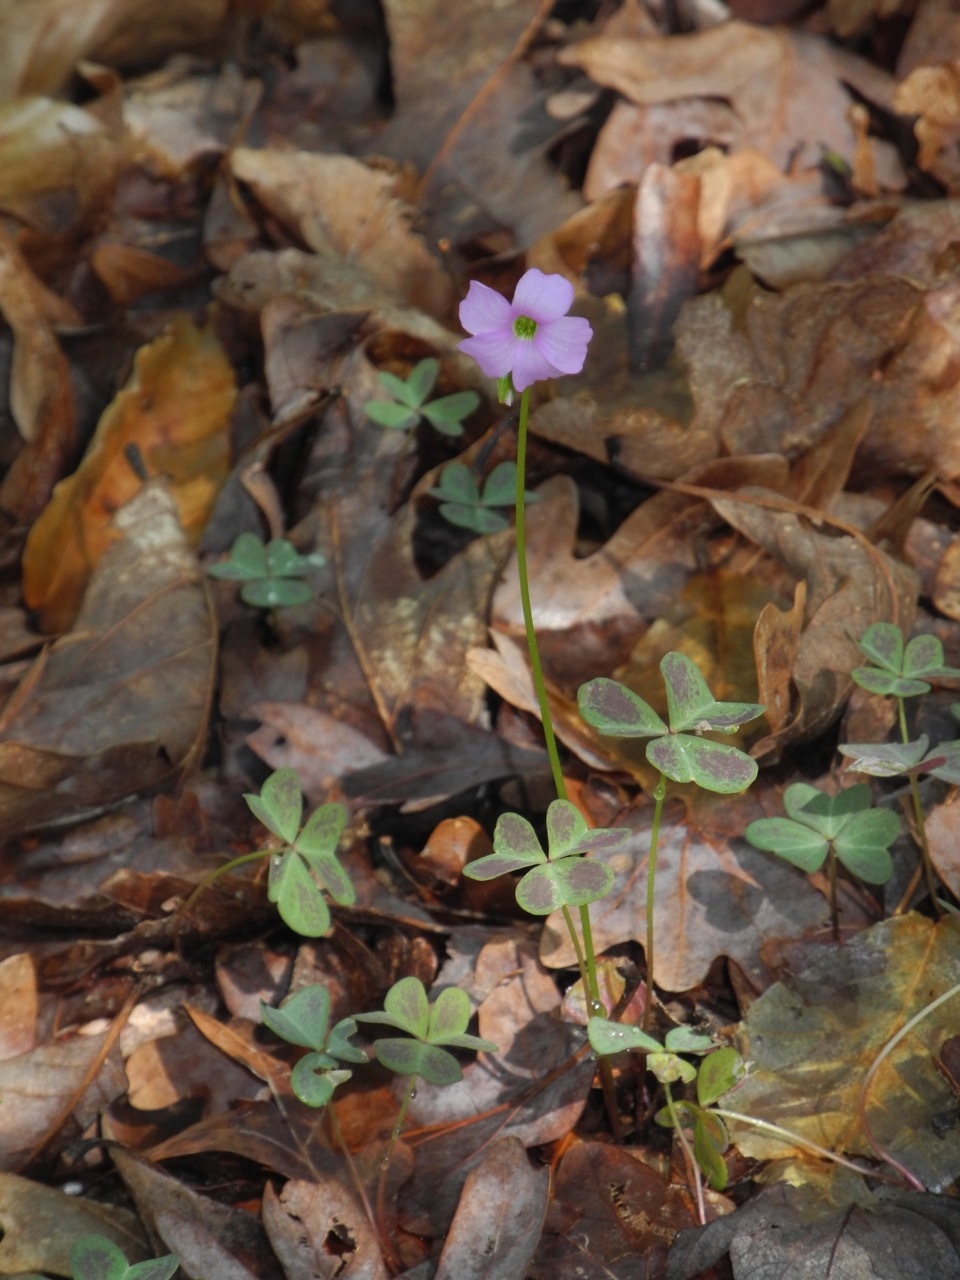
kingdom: Plantae
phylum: Tracheophyta
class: Magnoliopsida
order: Oxalidales
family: Oxalidaceae
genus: Oxalis
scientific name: Oxalis violacea
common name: Violet wood-sorrel
